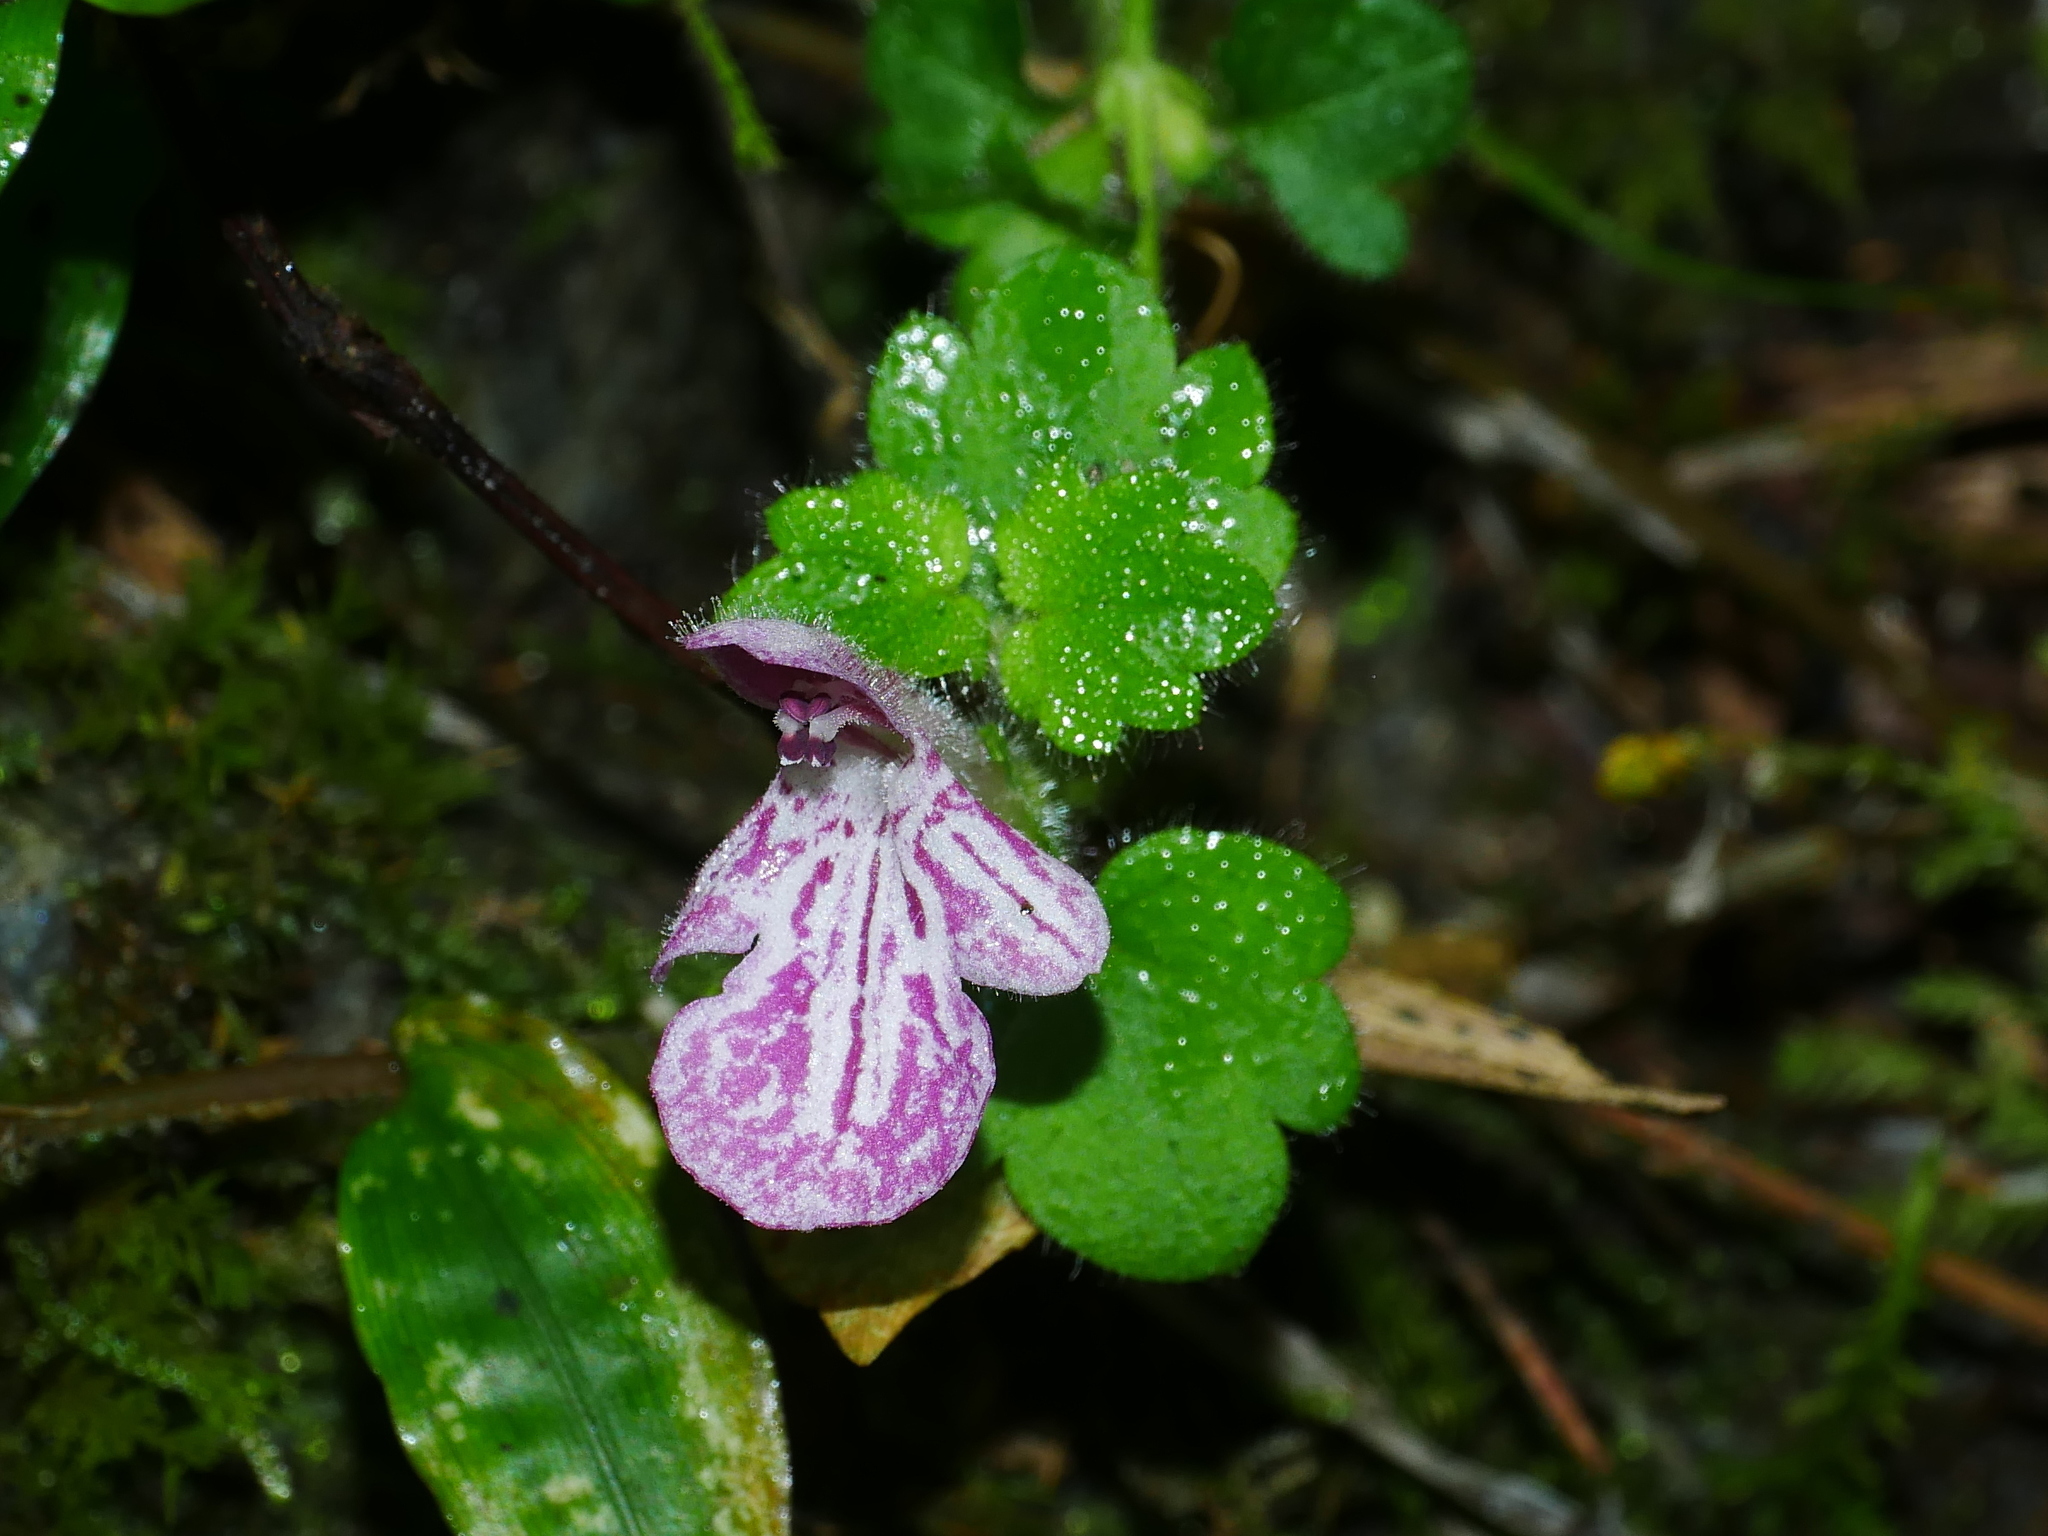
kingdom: Plantae
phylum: Tracheophyta
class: Magnoliopsida
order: Lamiales
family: Lamiaceae
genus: Suzukia
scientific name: Suzukia shikikunensis
